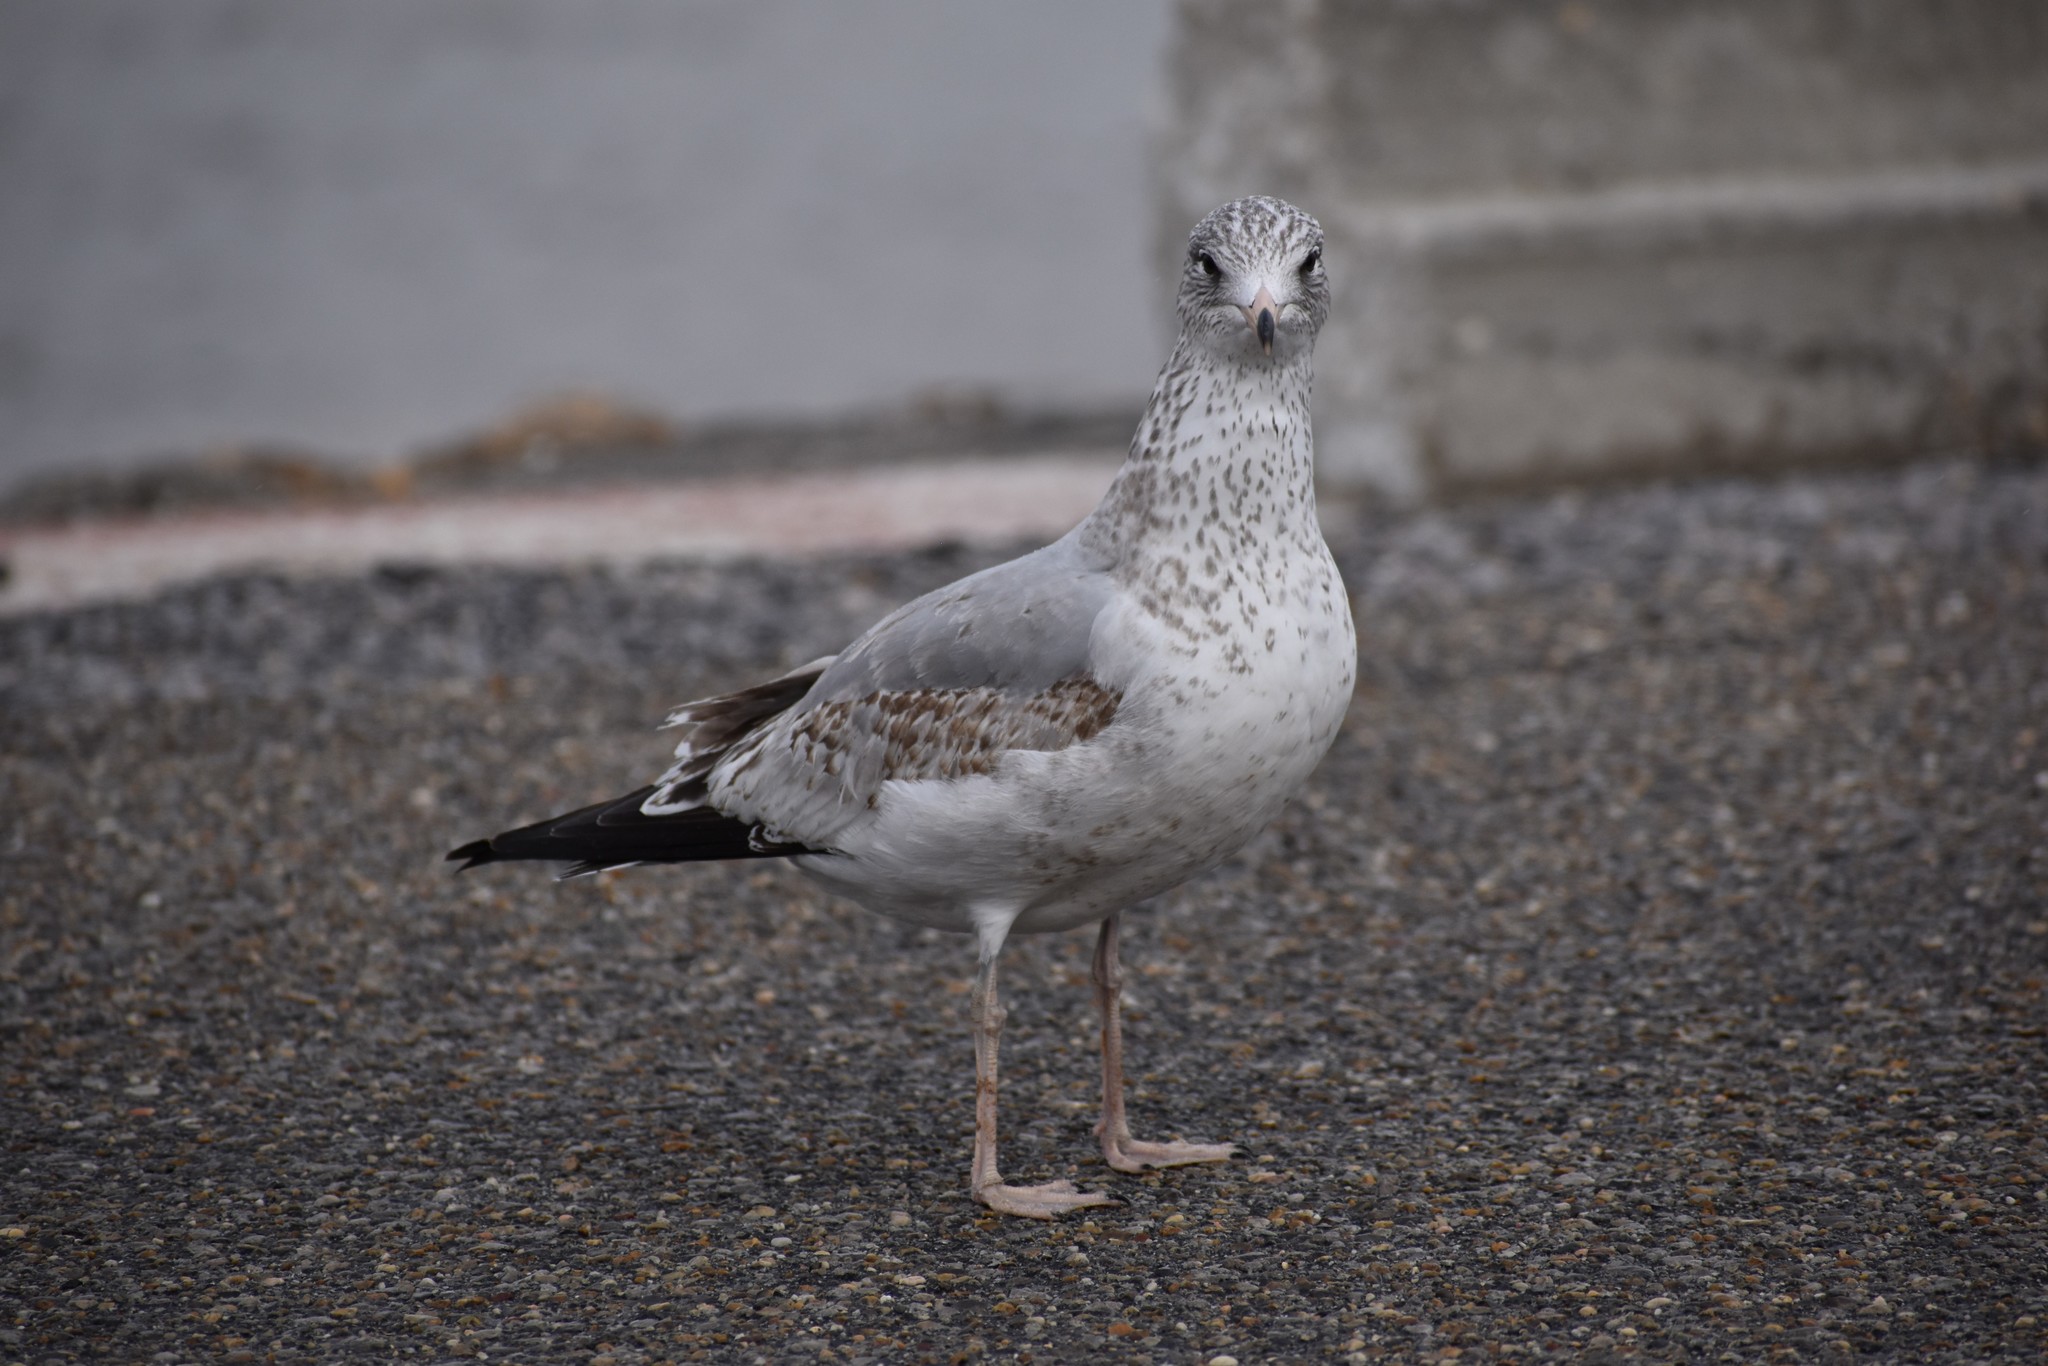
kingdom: Animalia
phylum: Chordata
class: Aves
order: Charadriiformes
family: Laridae
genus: Larus
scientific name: Larus delawarensis
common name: Ring-billed gull
